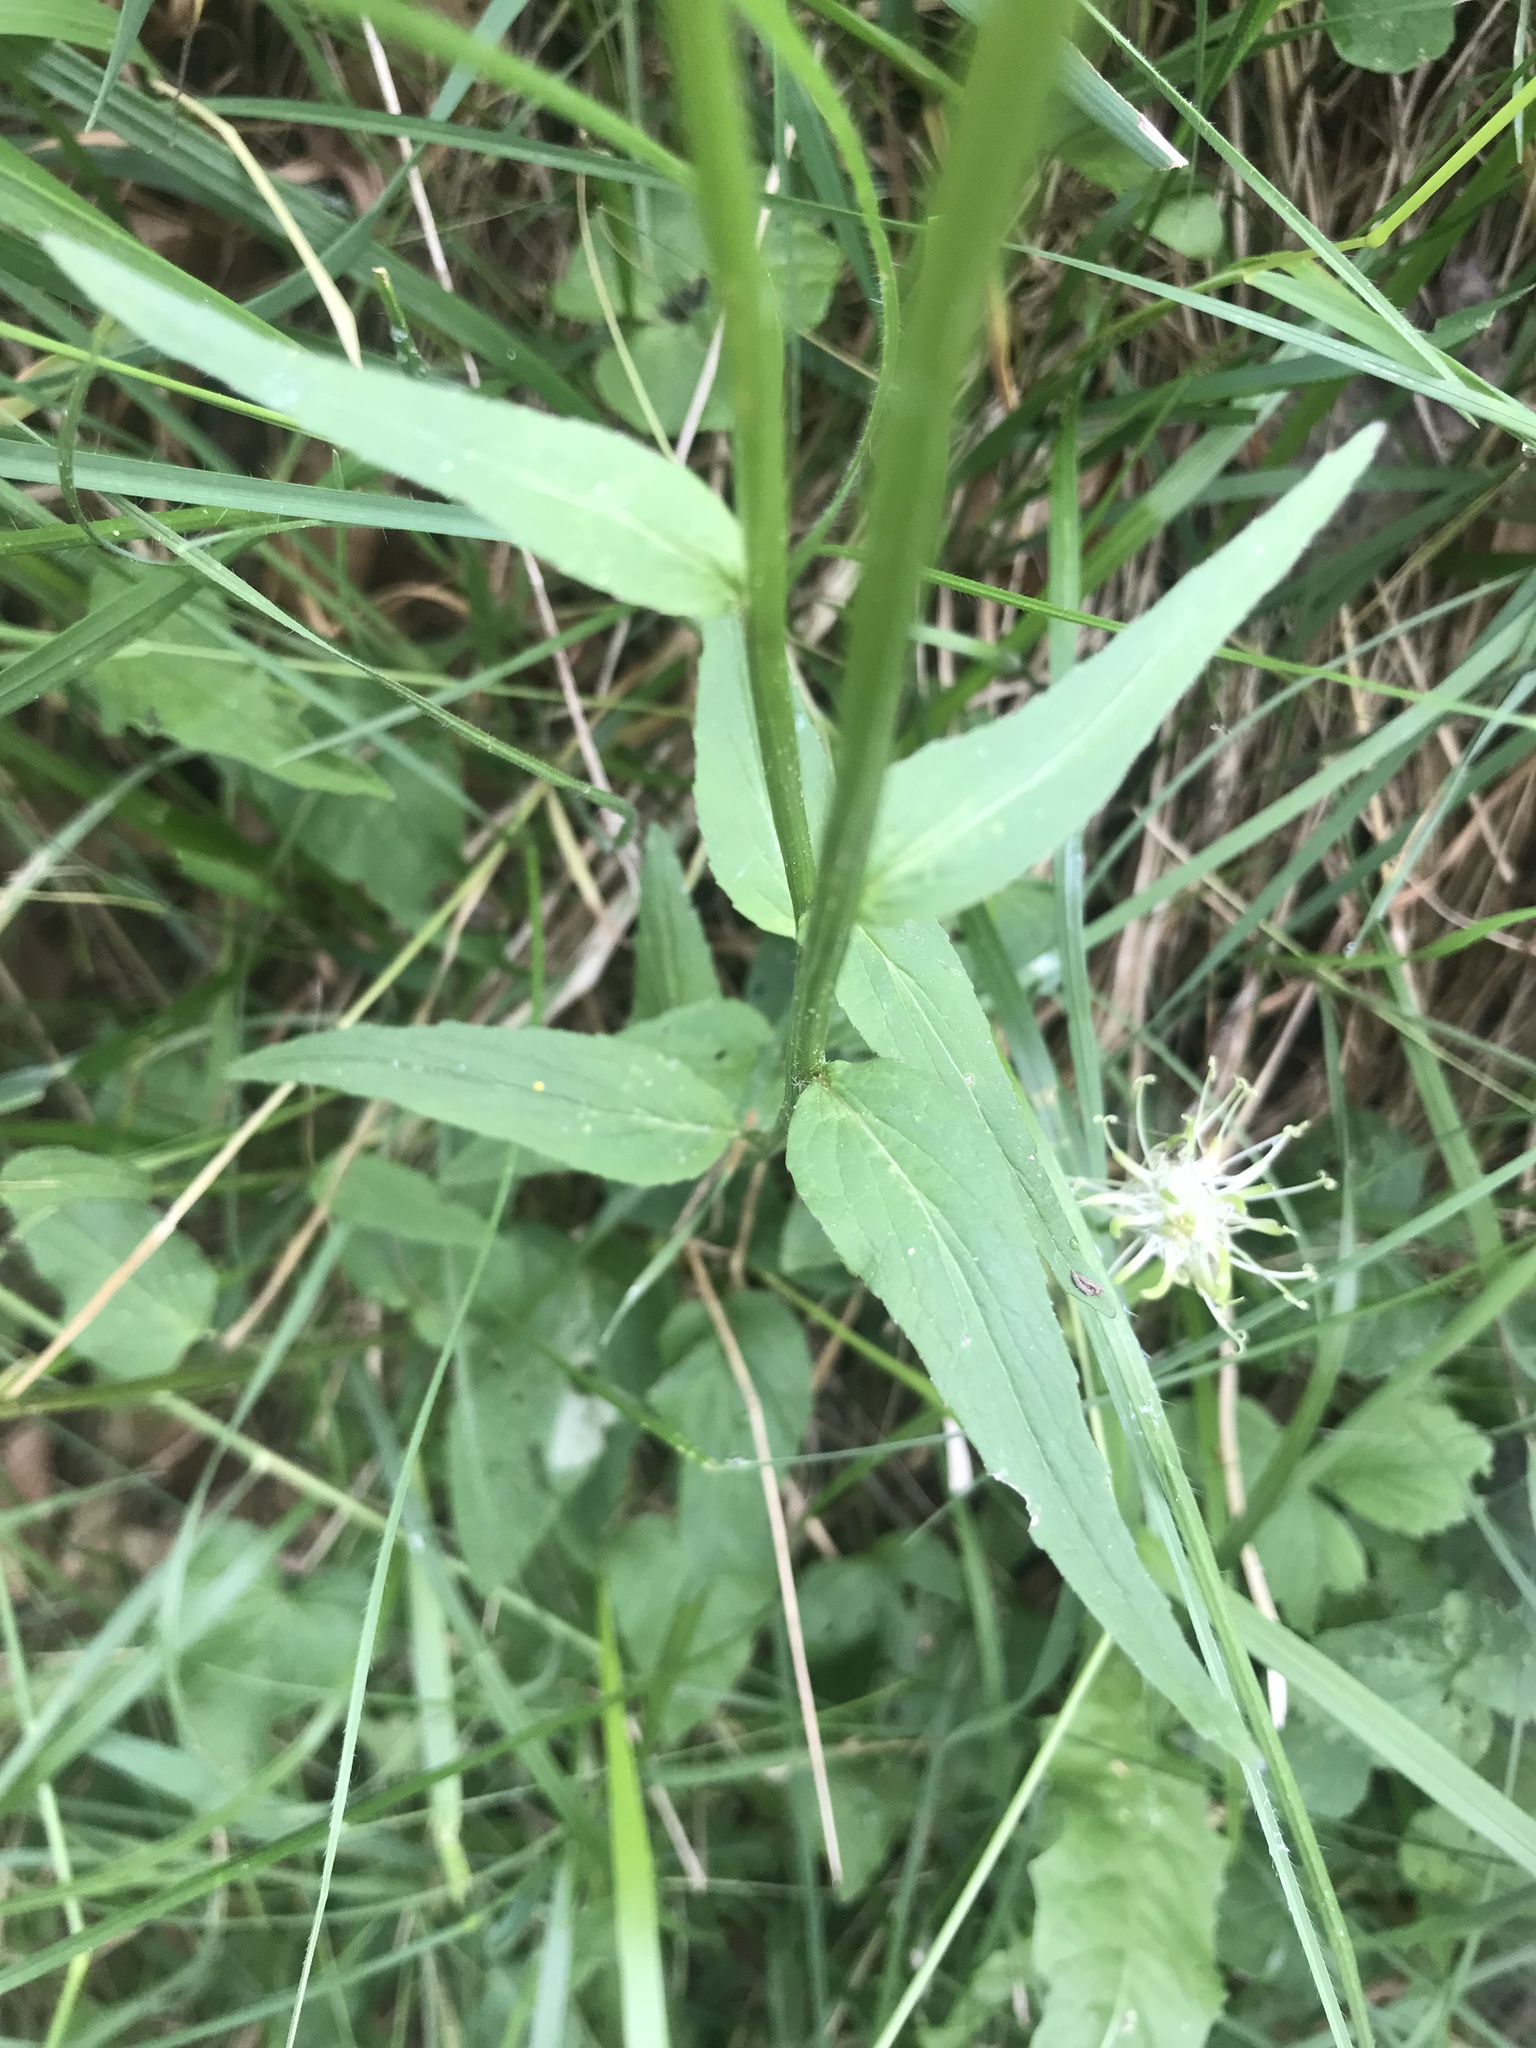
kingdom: Plantae
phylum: Tracheophyta
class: Magnoliopsida
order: Asterales
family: Campanulaceae
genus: Phyteuma
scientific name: Phyteuma spicatum
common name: Spiked rampion
